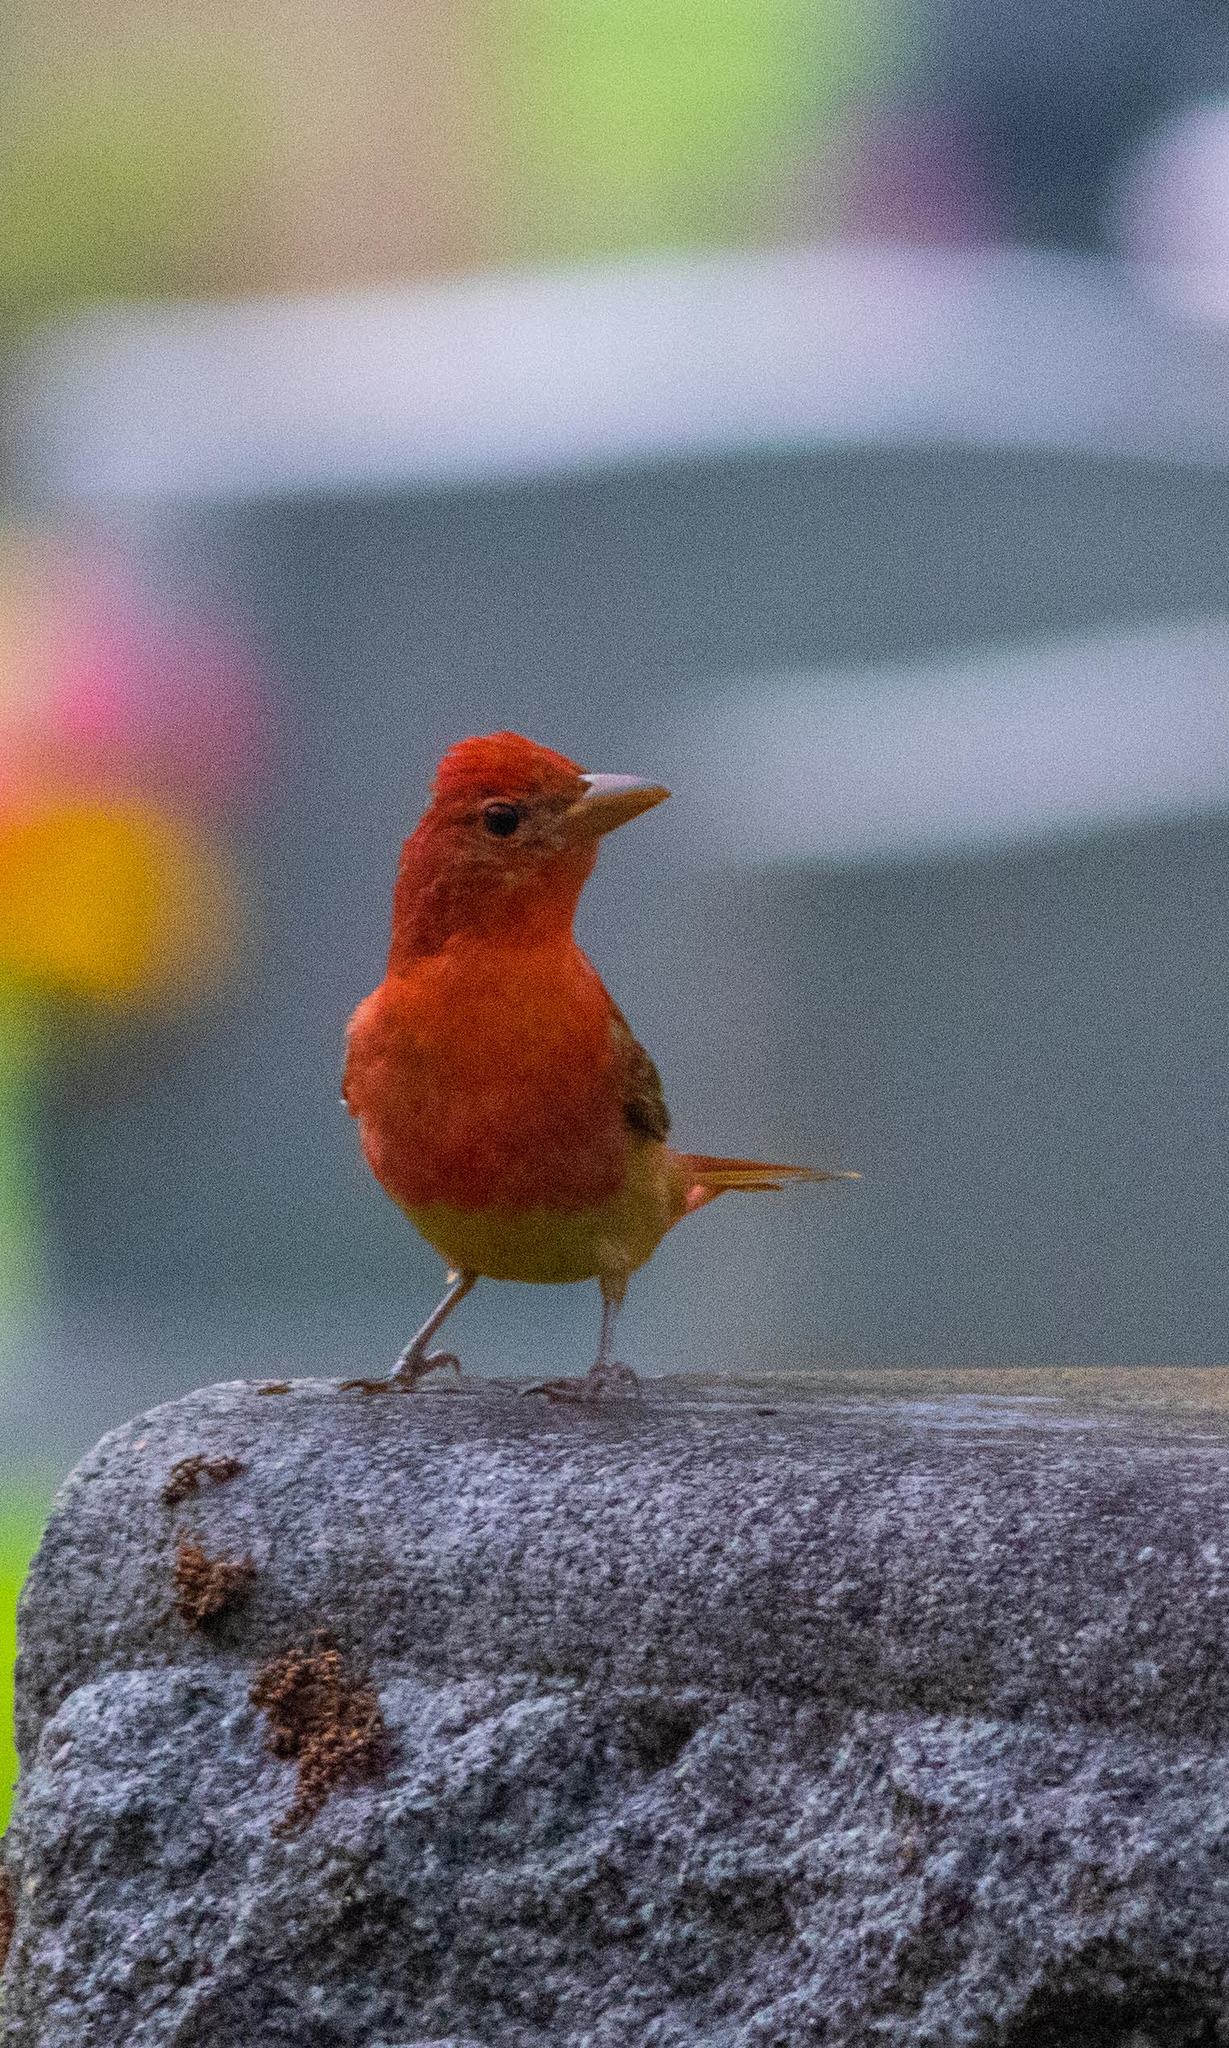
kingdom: Animalia
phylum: Chordata
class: Aves
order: Passeriformes
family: Cardinalidae
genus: Piranga
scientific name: Piranga rubra
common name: Summer tanager
